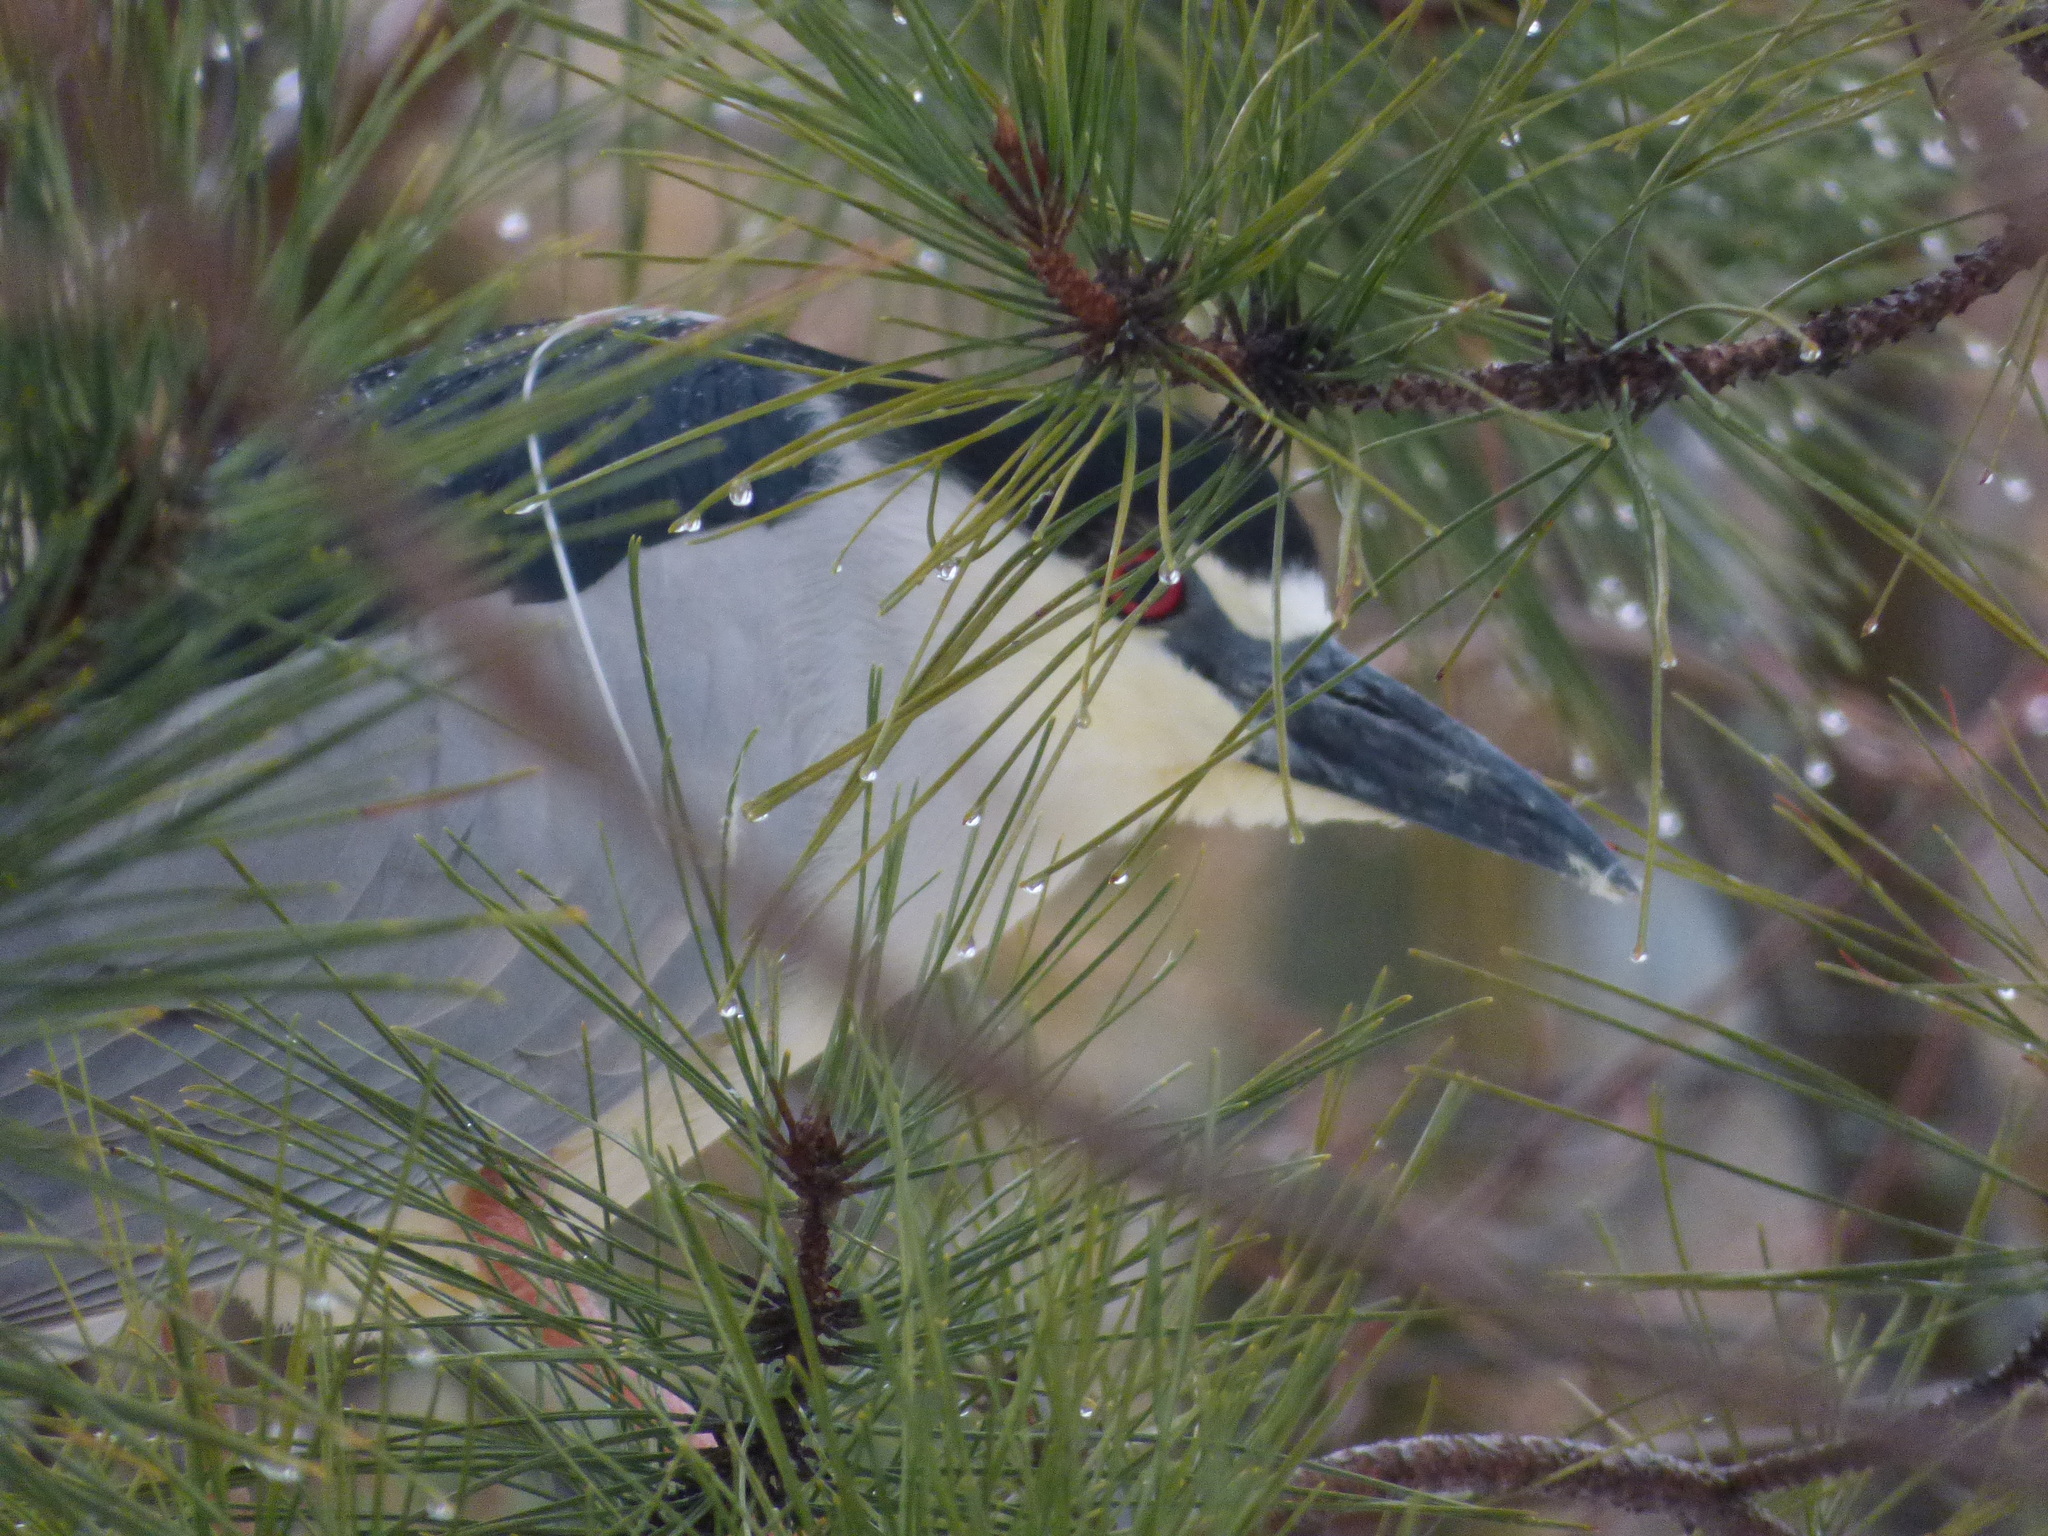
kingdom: Animalia
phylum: Chordata
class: Aves
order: Pelecaniformes
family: Ardeidae
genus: Nycticorax
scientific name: Nycticorax nycticorax
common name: Black-crowned night heron
